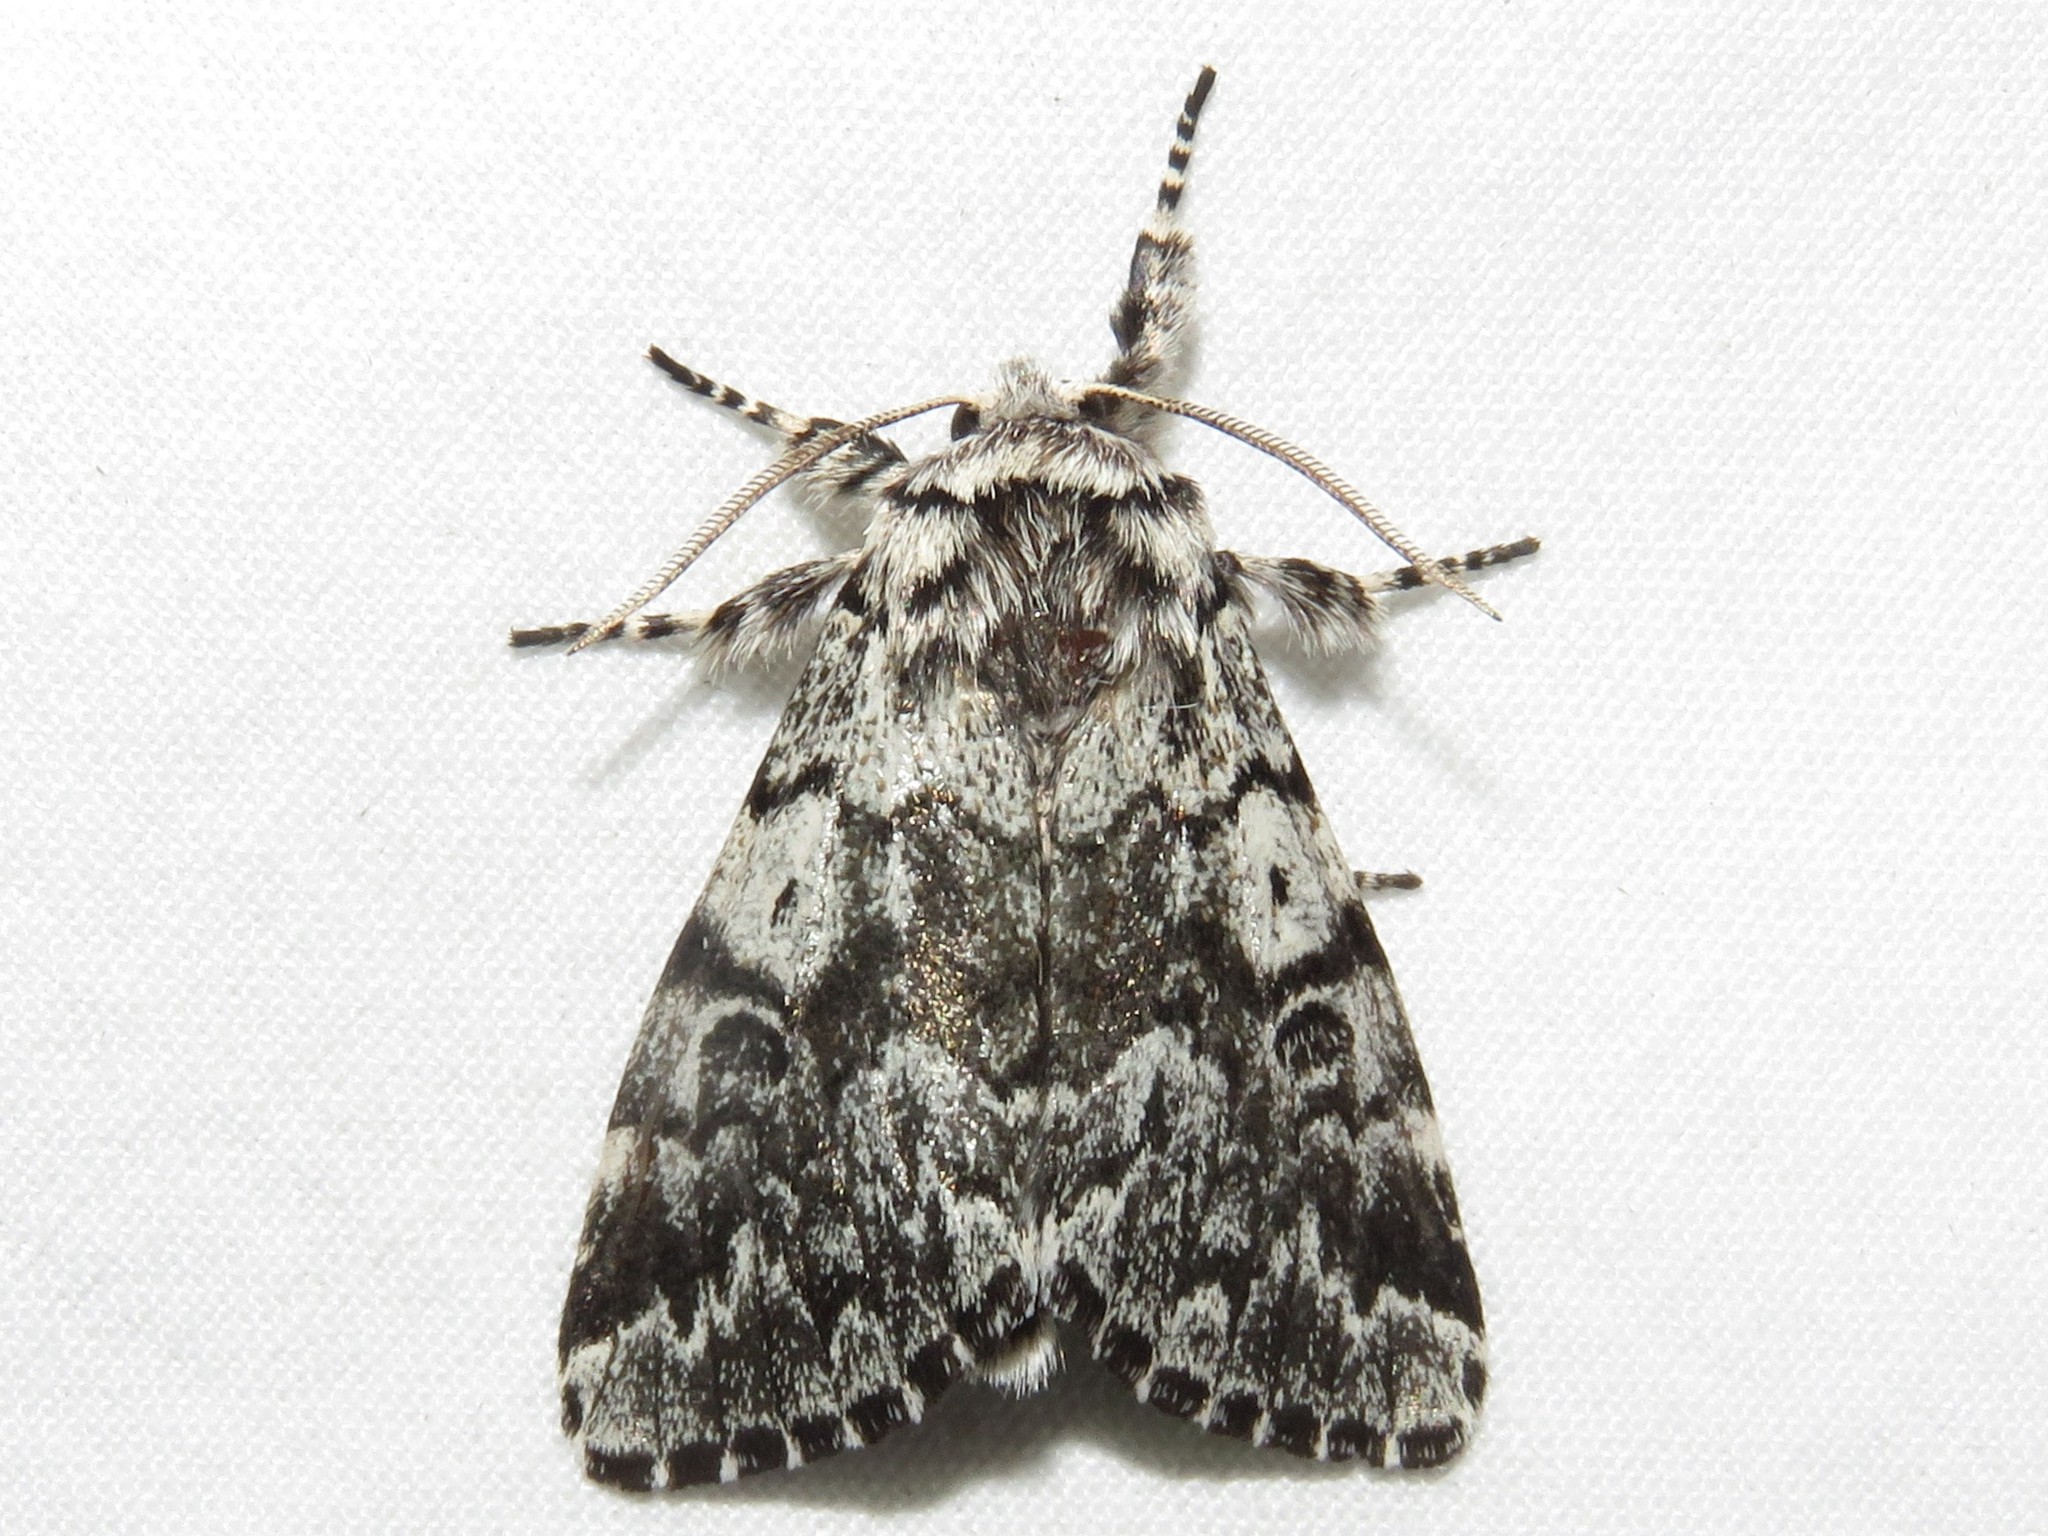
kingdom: Animalia
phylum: Arthropoda
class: Insecta
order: Lepidoptera
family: Noctuidae
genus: Panthea
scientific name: Panthea acronyctoides
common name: Black zigzag moth
